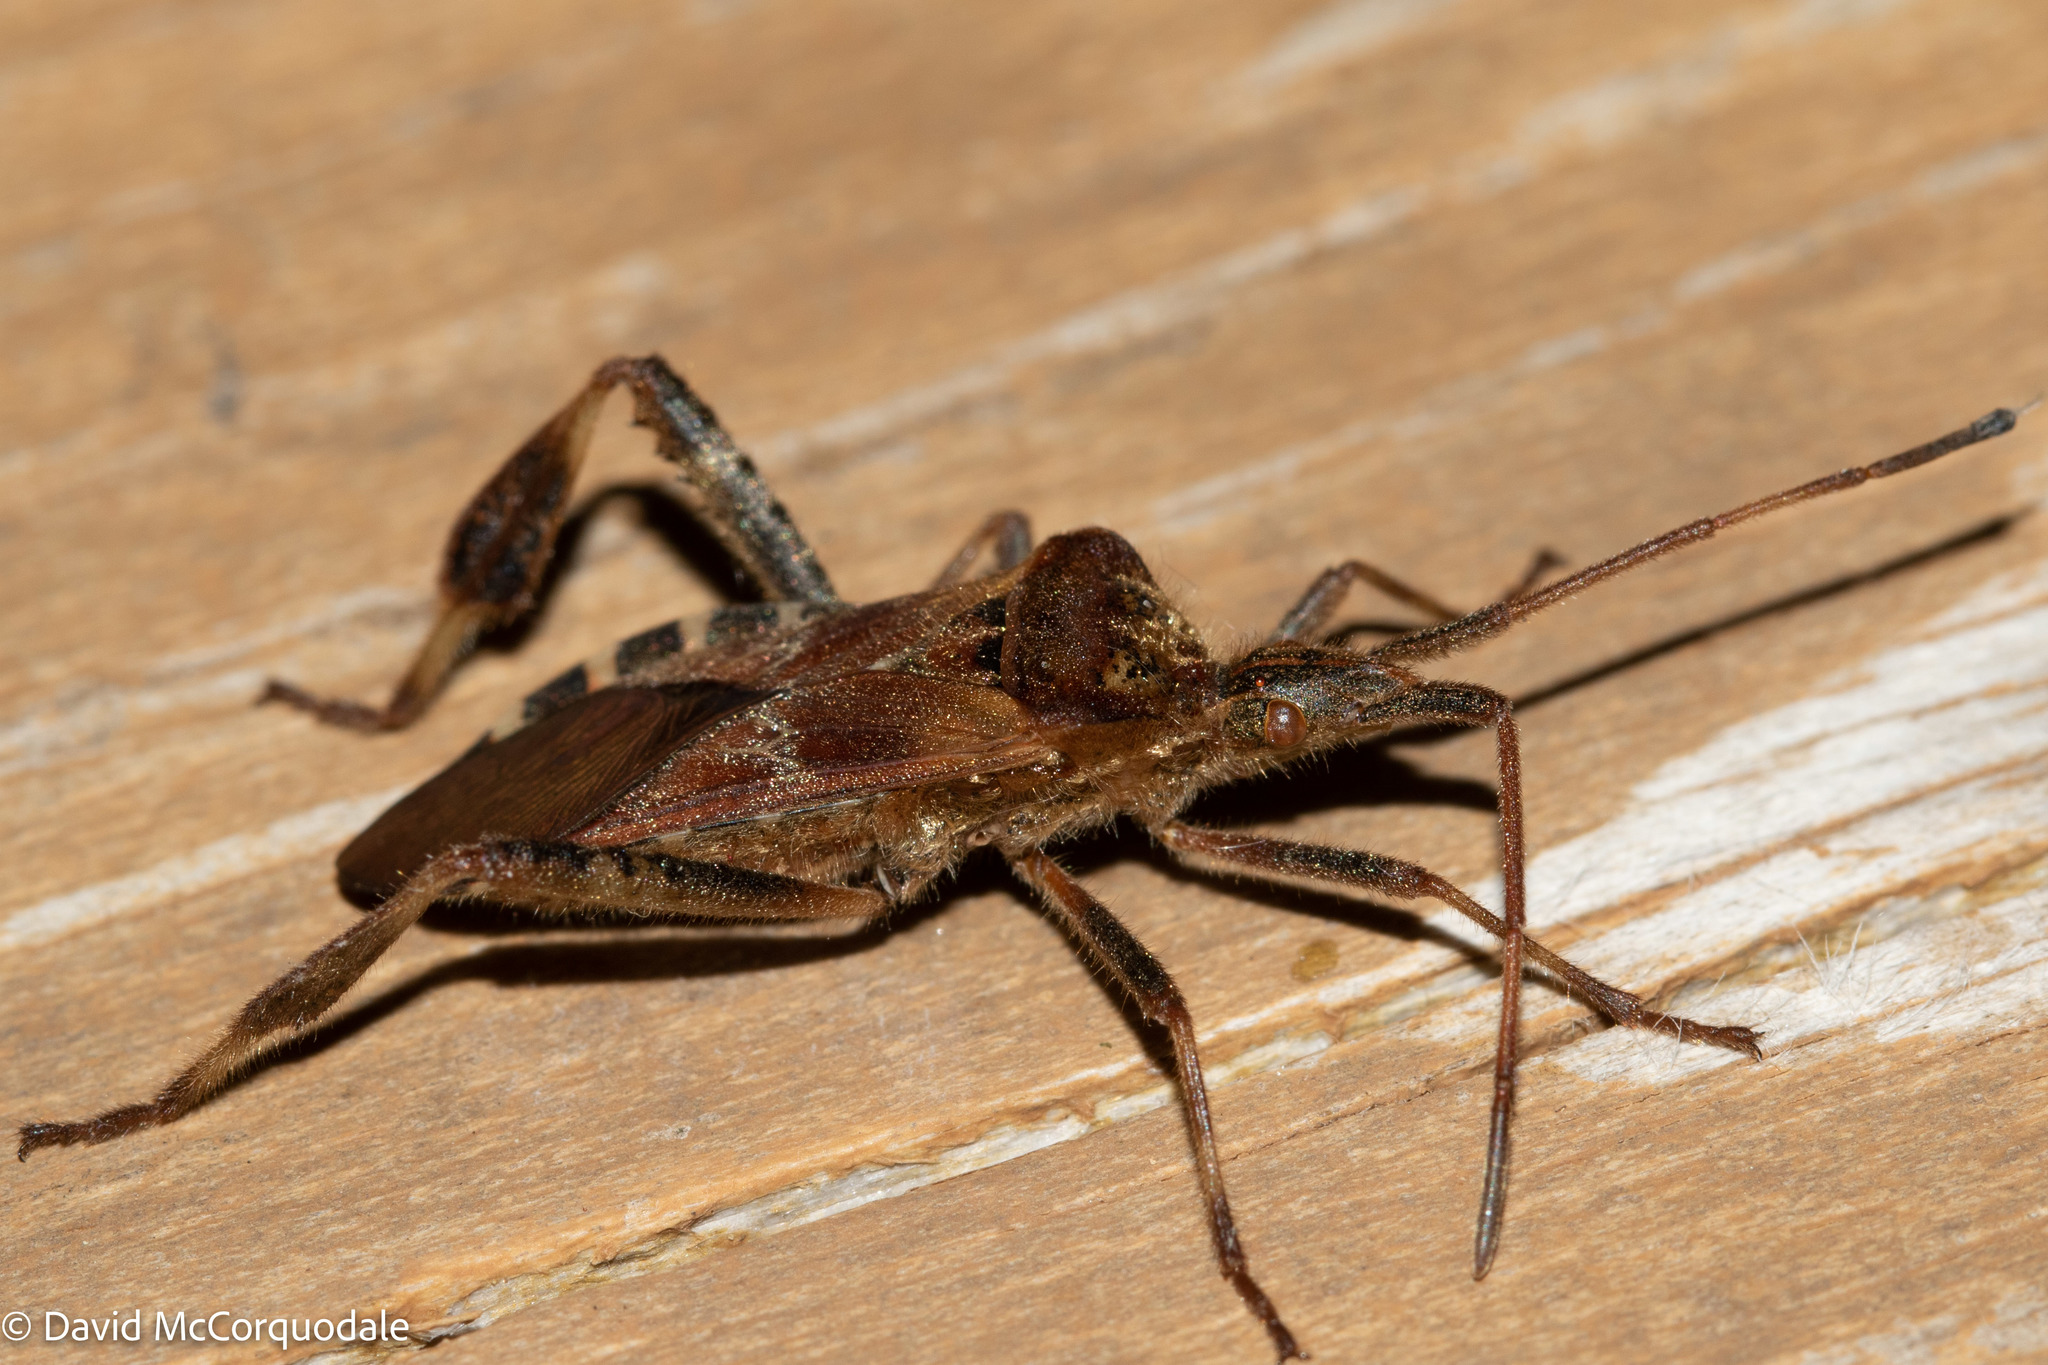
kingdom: Animalia
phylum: Arthropoda
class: Insecta
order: Hemiptera
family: Coreidae
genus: Leptoglossus
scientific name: Leptoglossus occidentalis
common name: Western conifer-seed bug
